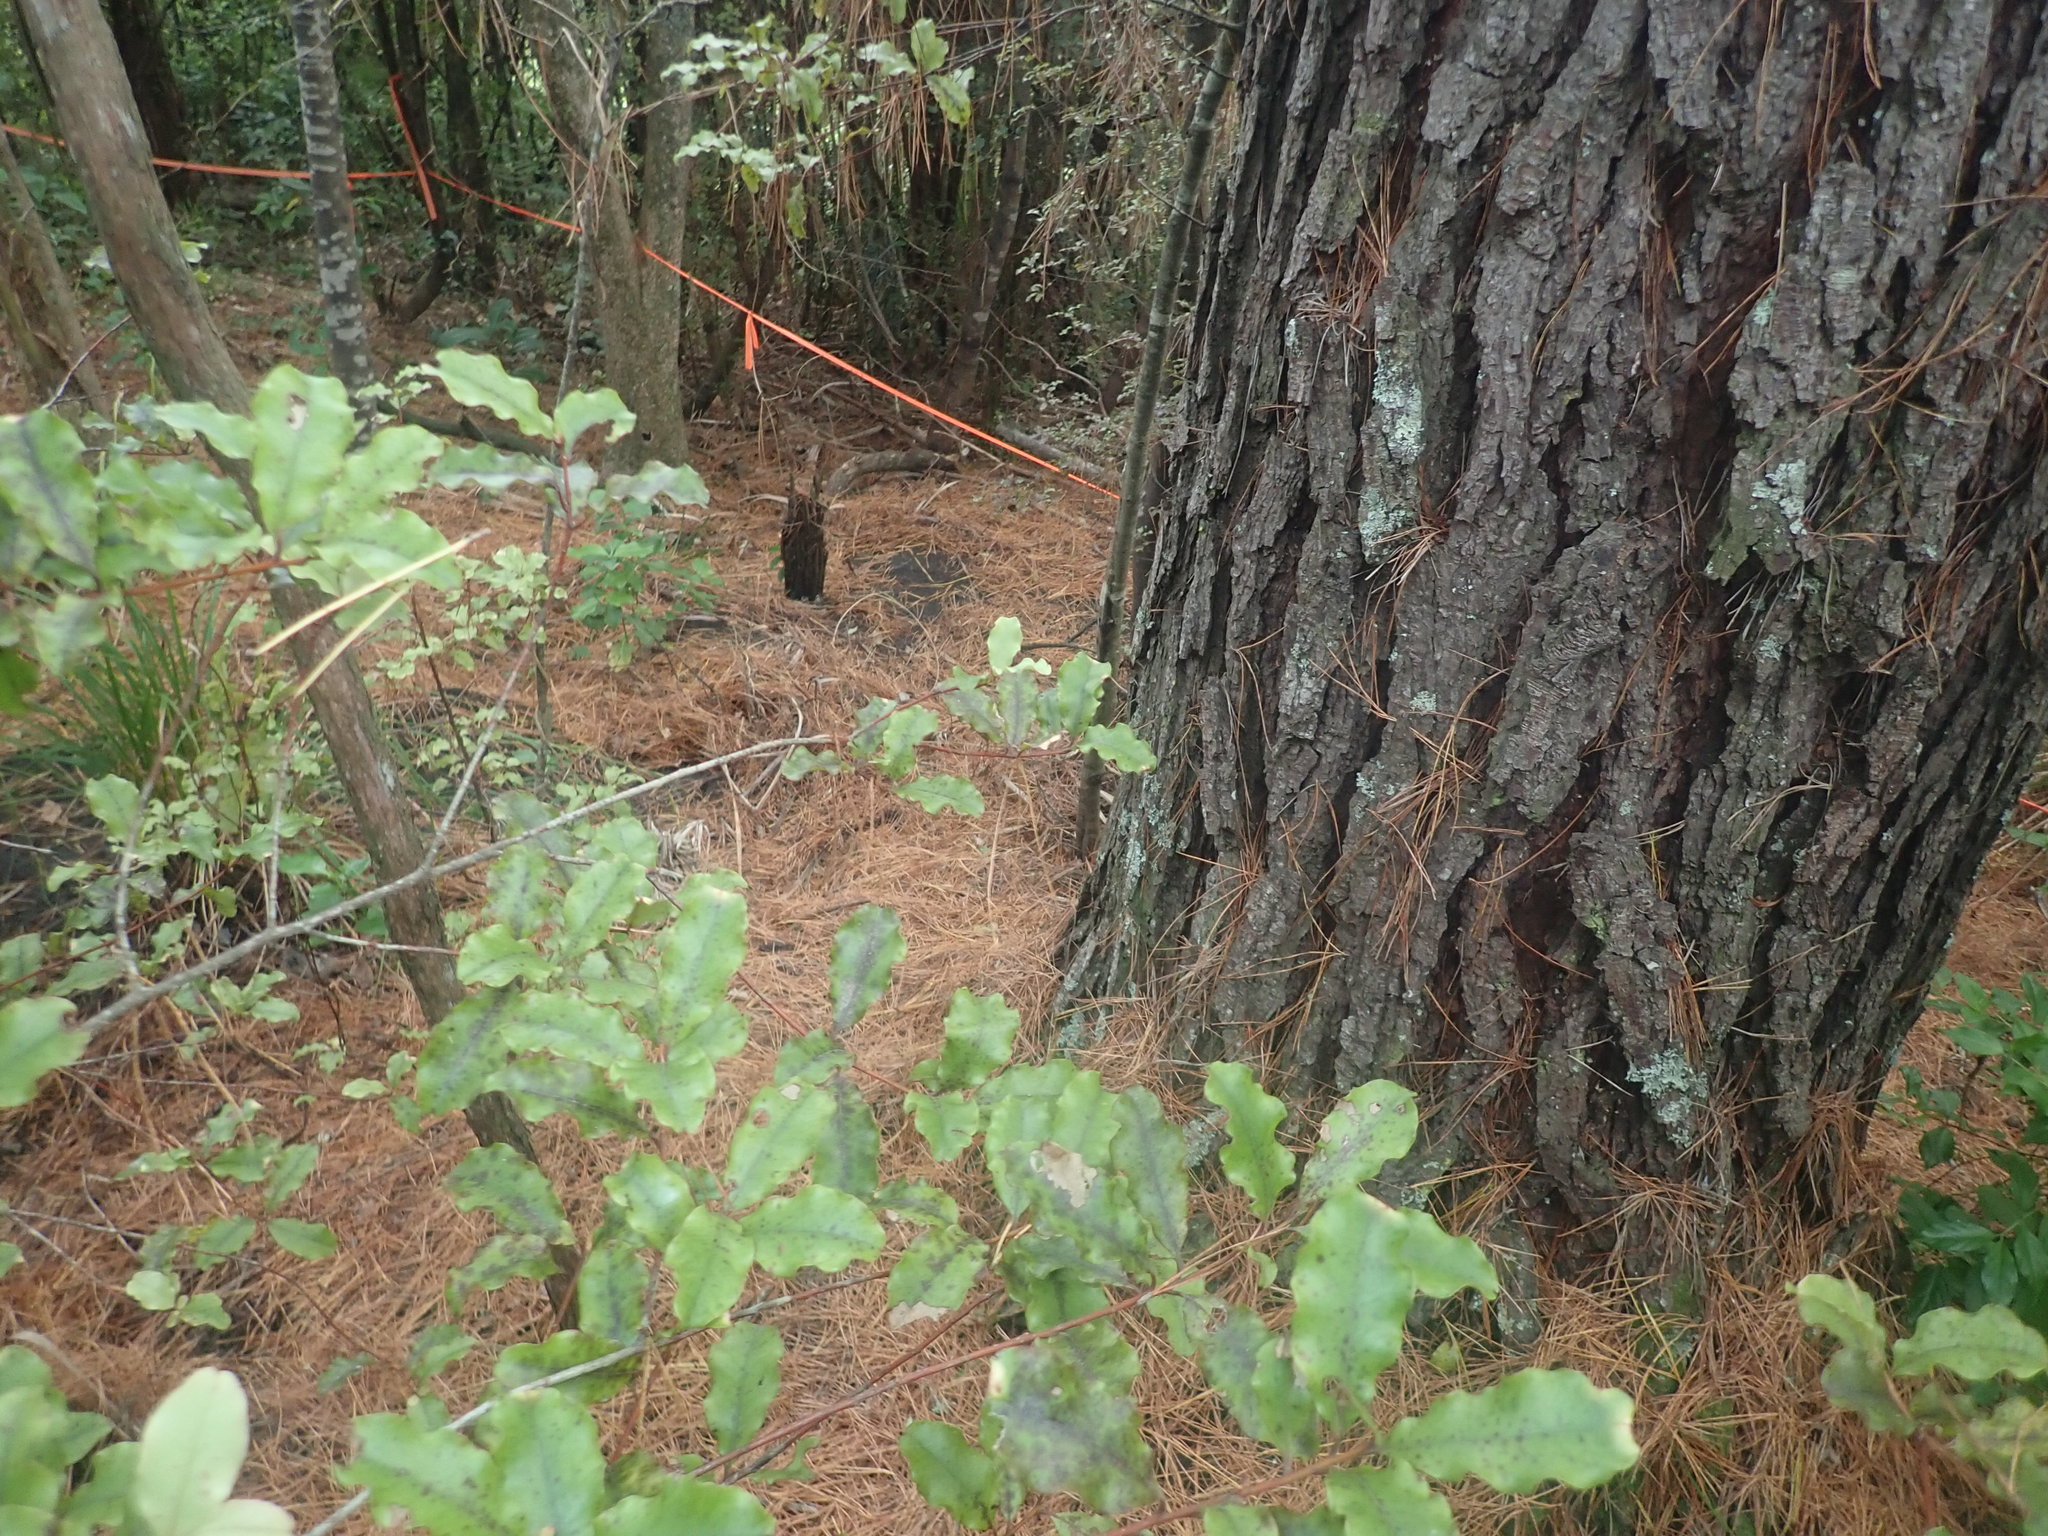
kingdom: Plantae
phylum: Tracheophyta
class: Magnoliopsida
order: Ericales
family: Primulaceae
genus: Myrsine
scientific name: Myrsine australis
